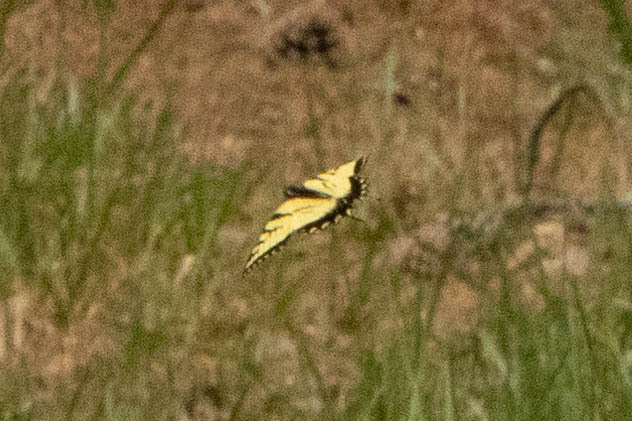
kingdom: Animalia
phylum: Arthropoda
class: Insecta
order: Lepidoptera
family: Papilionidae
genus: Papilio
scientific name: Papilio glaucus
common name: Tiger swallowtail
